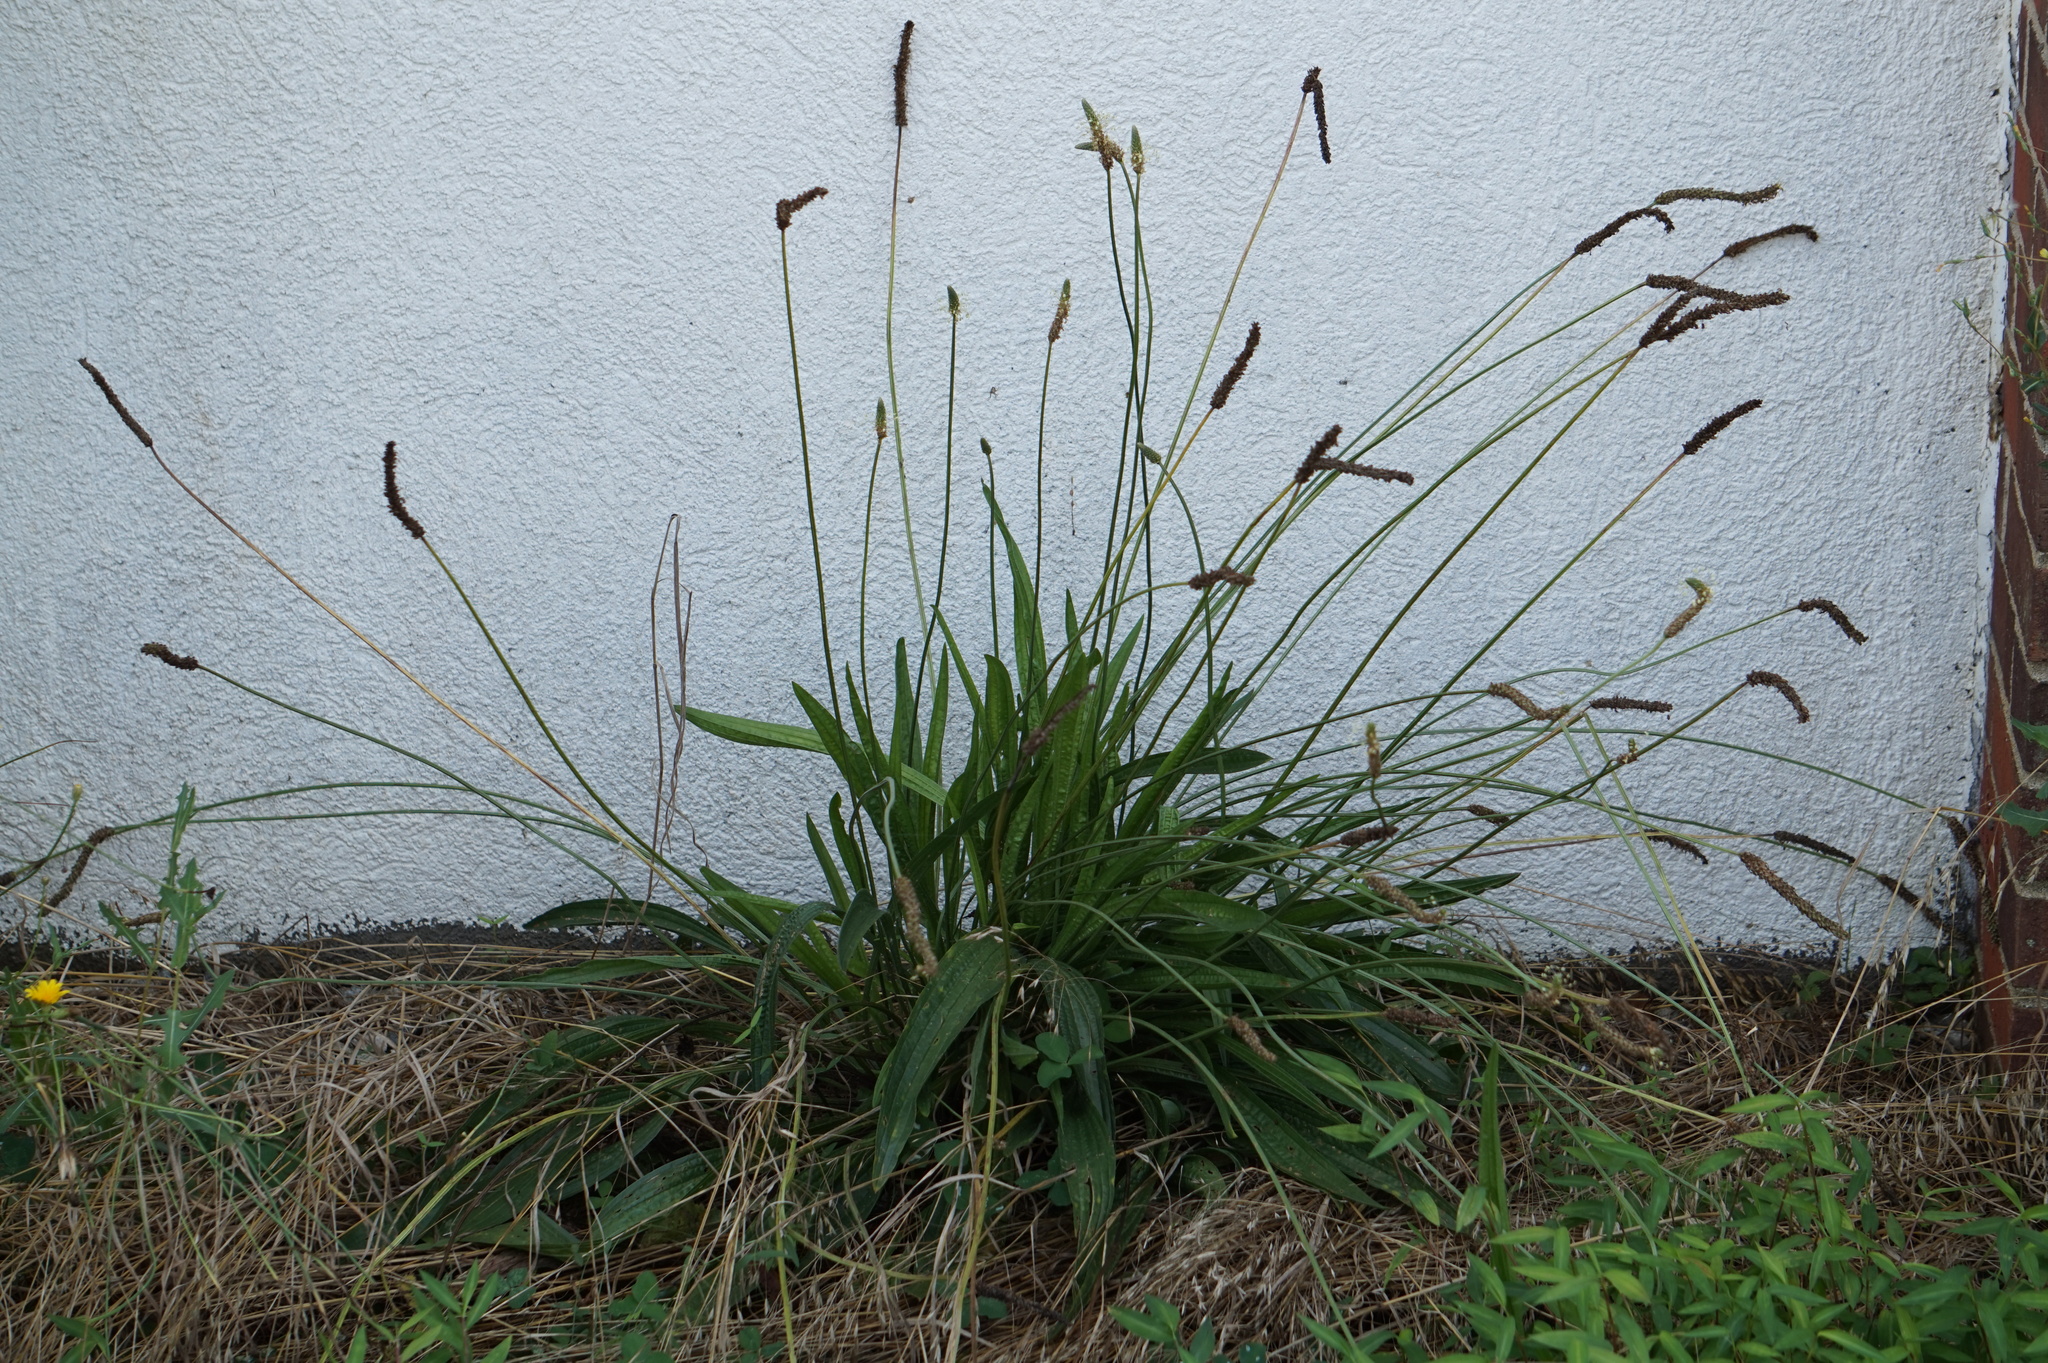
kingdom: Plantae
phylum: Tracheophyta
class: Magnoliopsida
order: Lamiales
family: Plantaginaceae
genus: Plantago
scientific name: Plantago lanceolata
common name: Ribwort plantain
